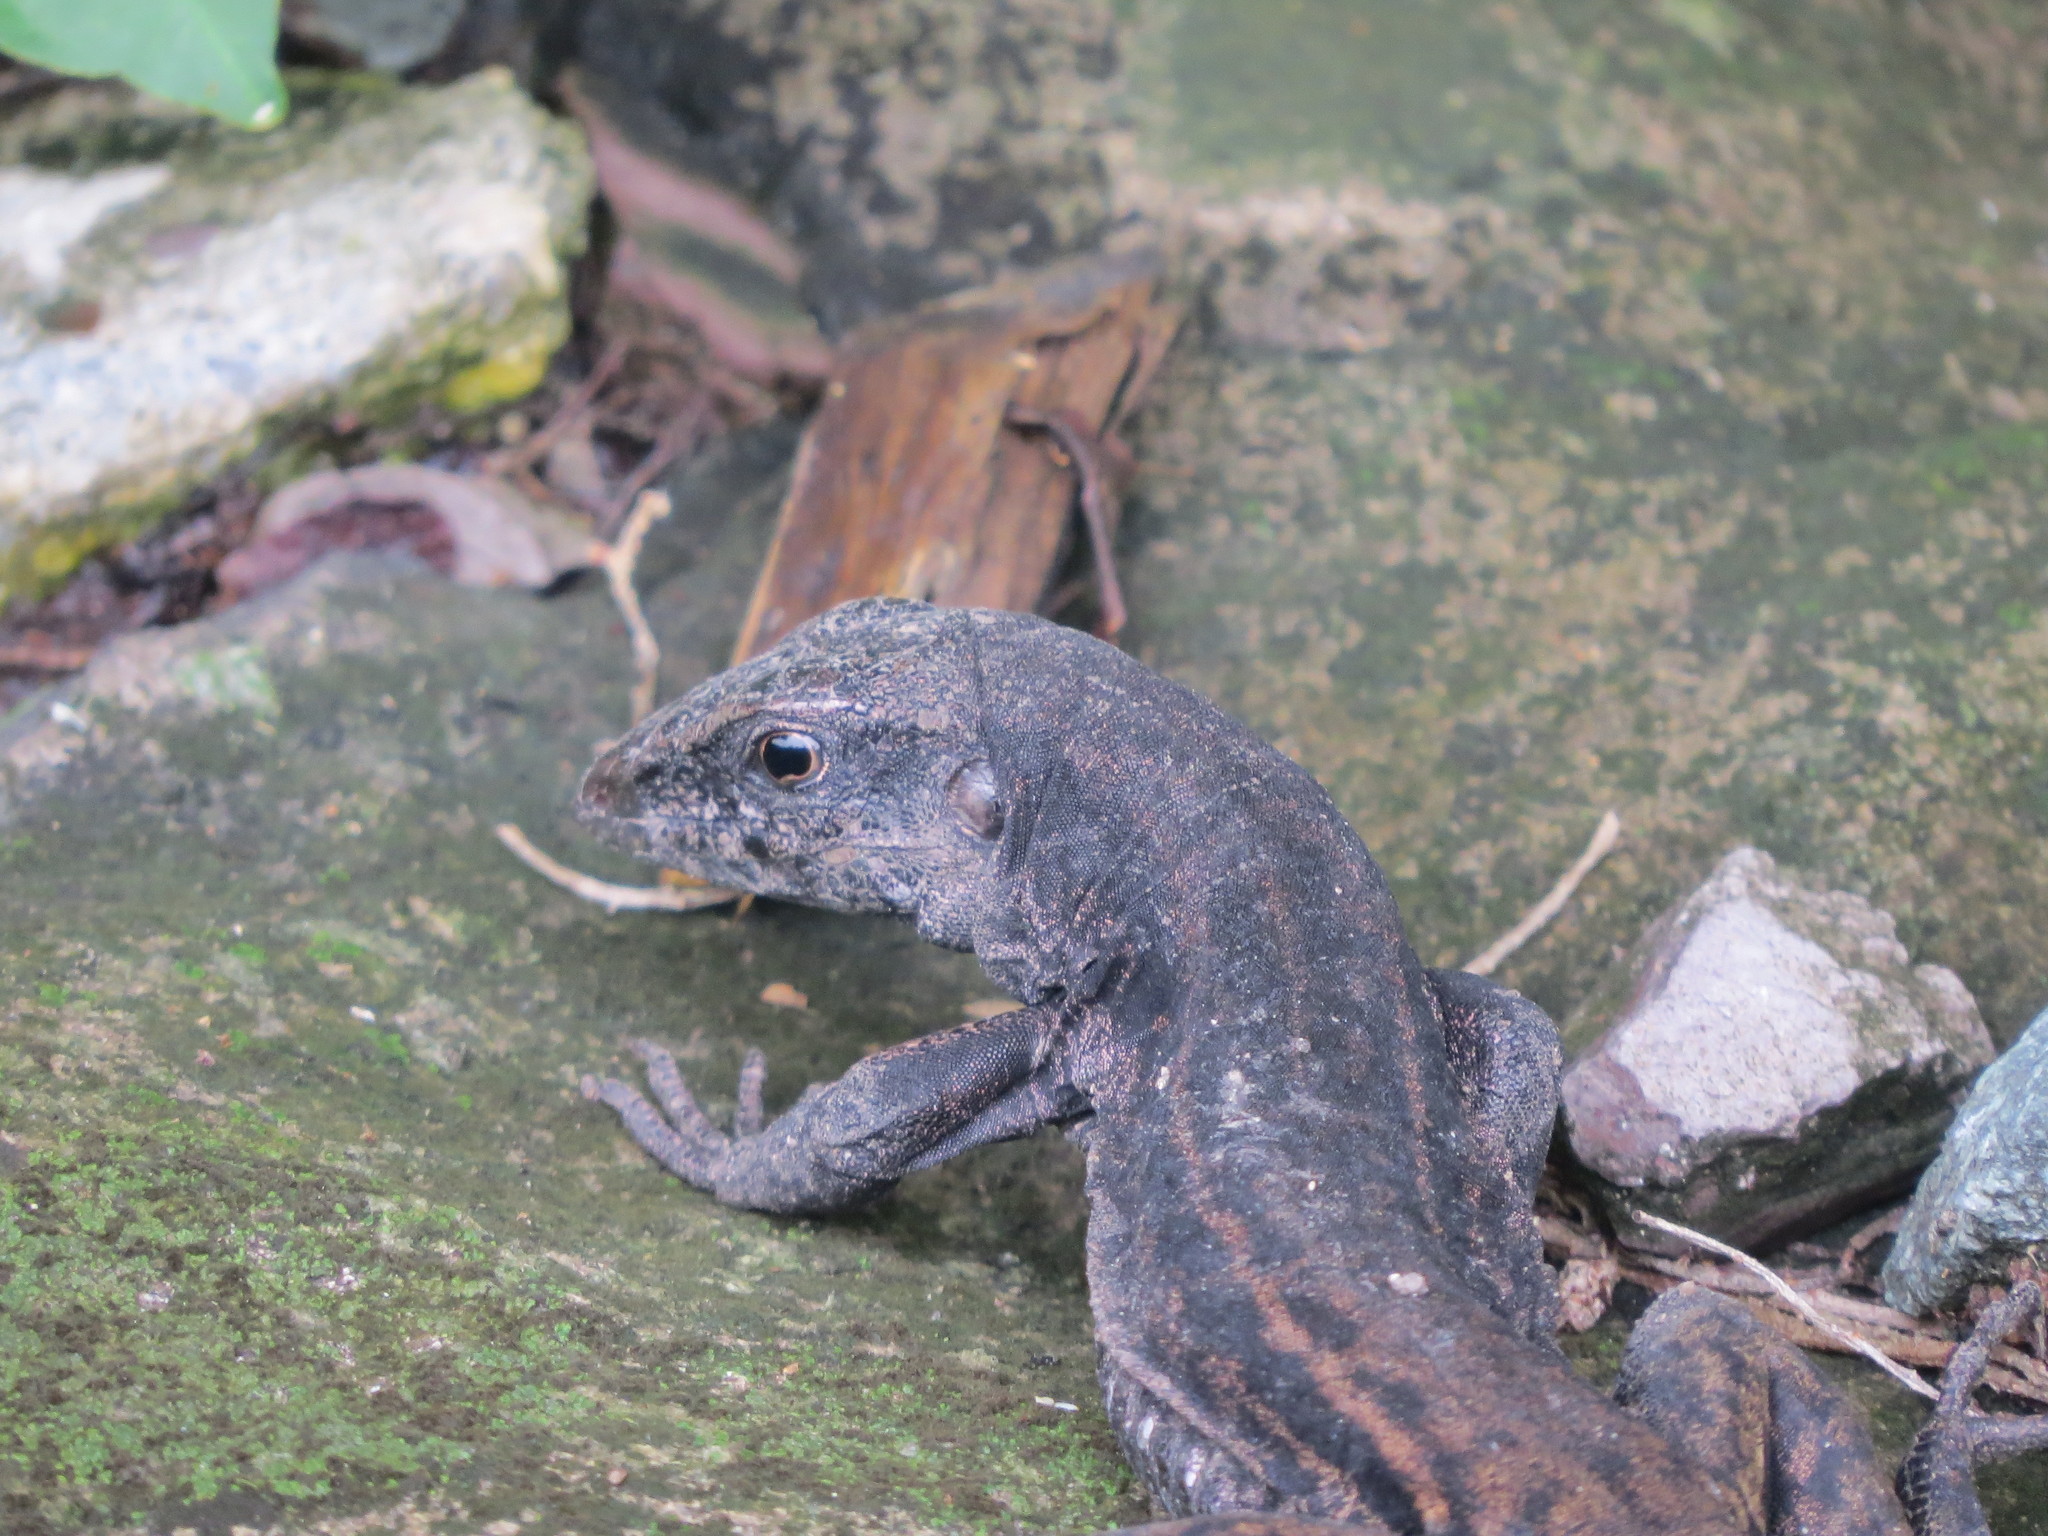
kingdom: Animalia
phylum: Chordata
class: Squamata
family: Teiidae
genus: Ameiva
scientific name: Ameiva fuliginosa
